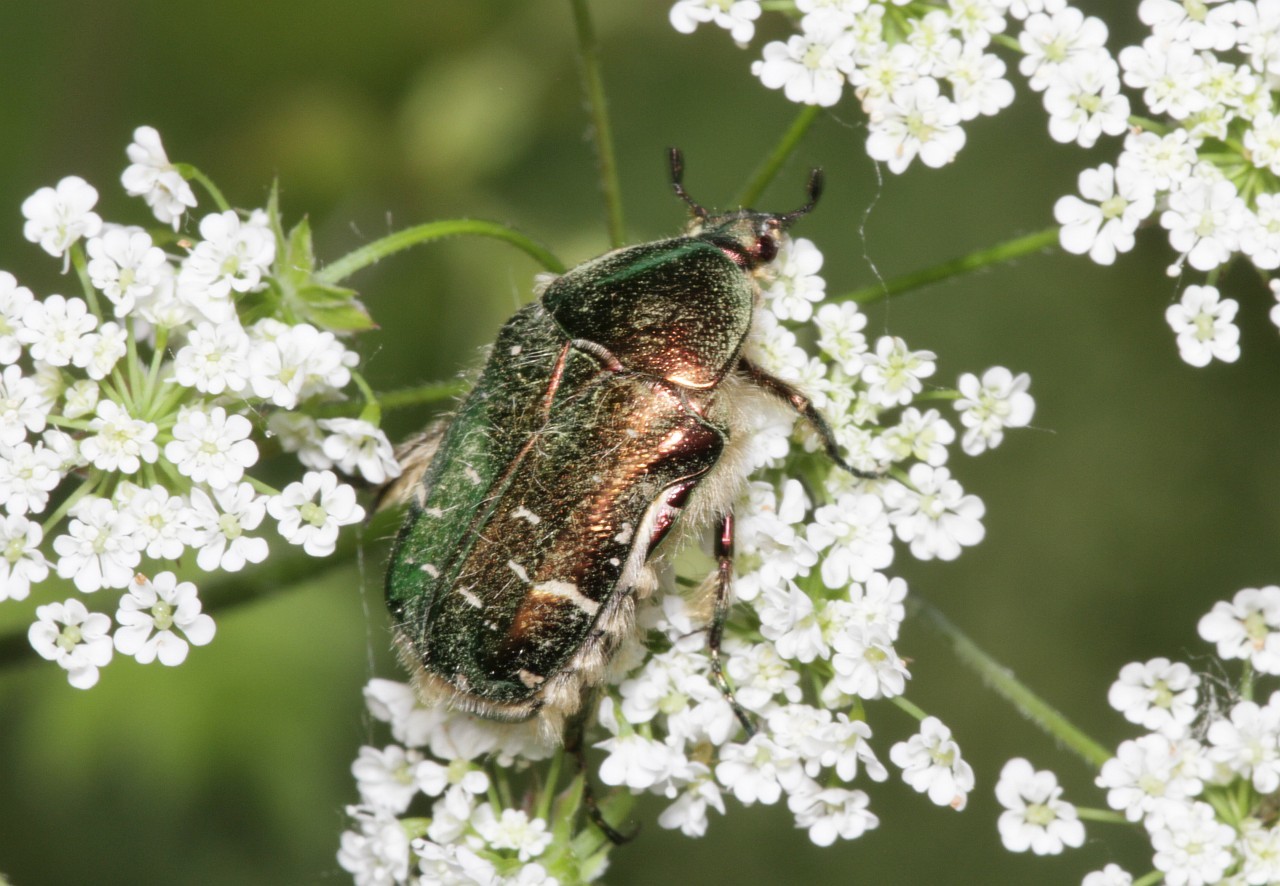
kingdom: Animalia
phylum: Arthropoda
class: Insecta
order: Coleoptera
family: Scarabaeidae
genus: Cetonia
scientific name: Cetonia aurata
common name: Rose chafer
